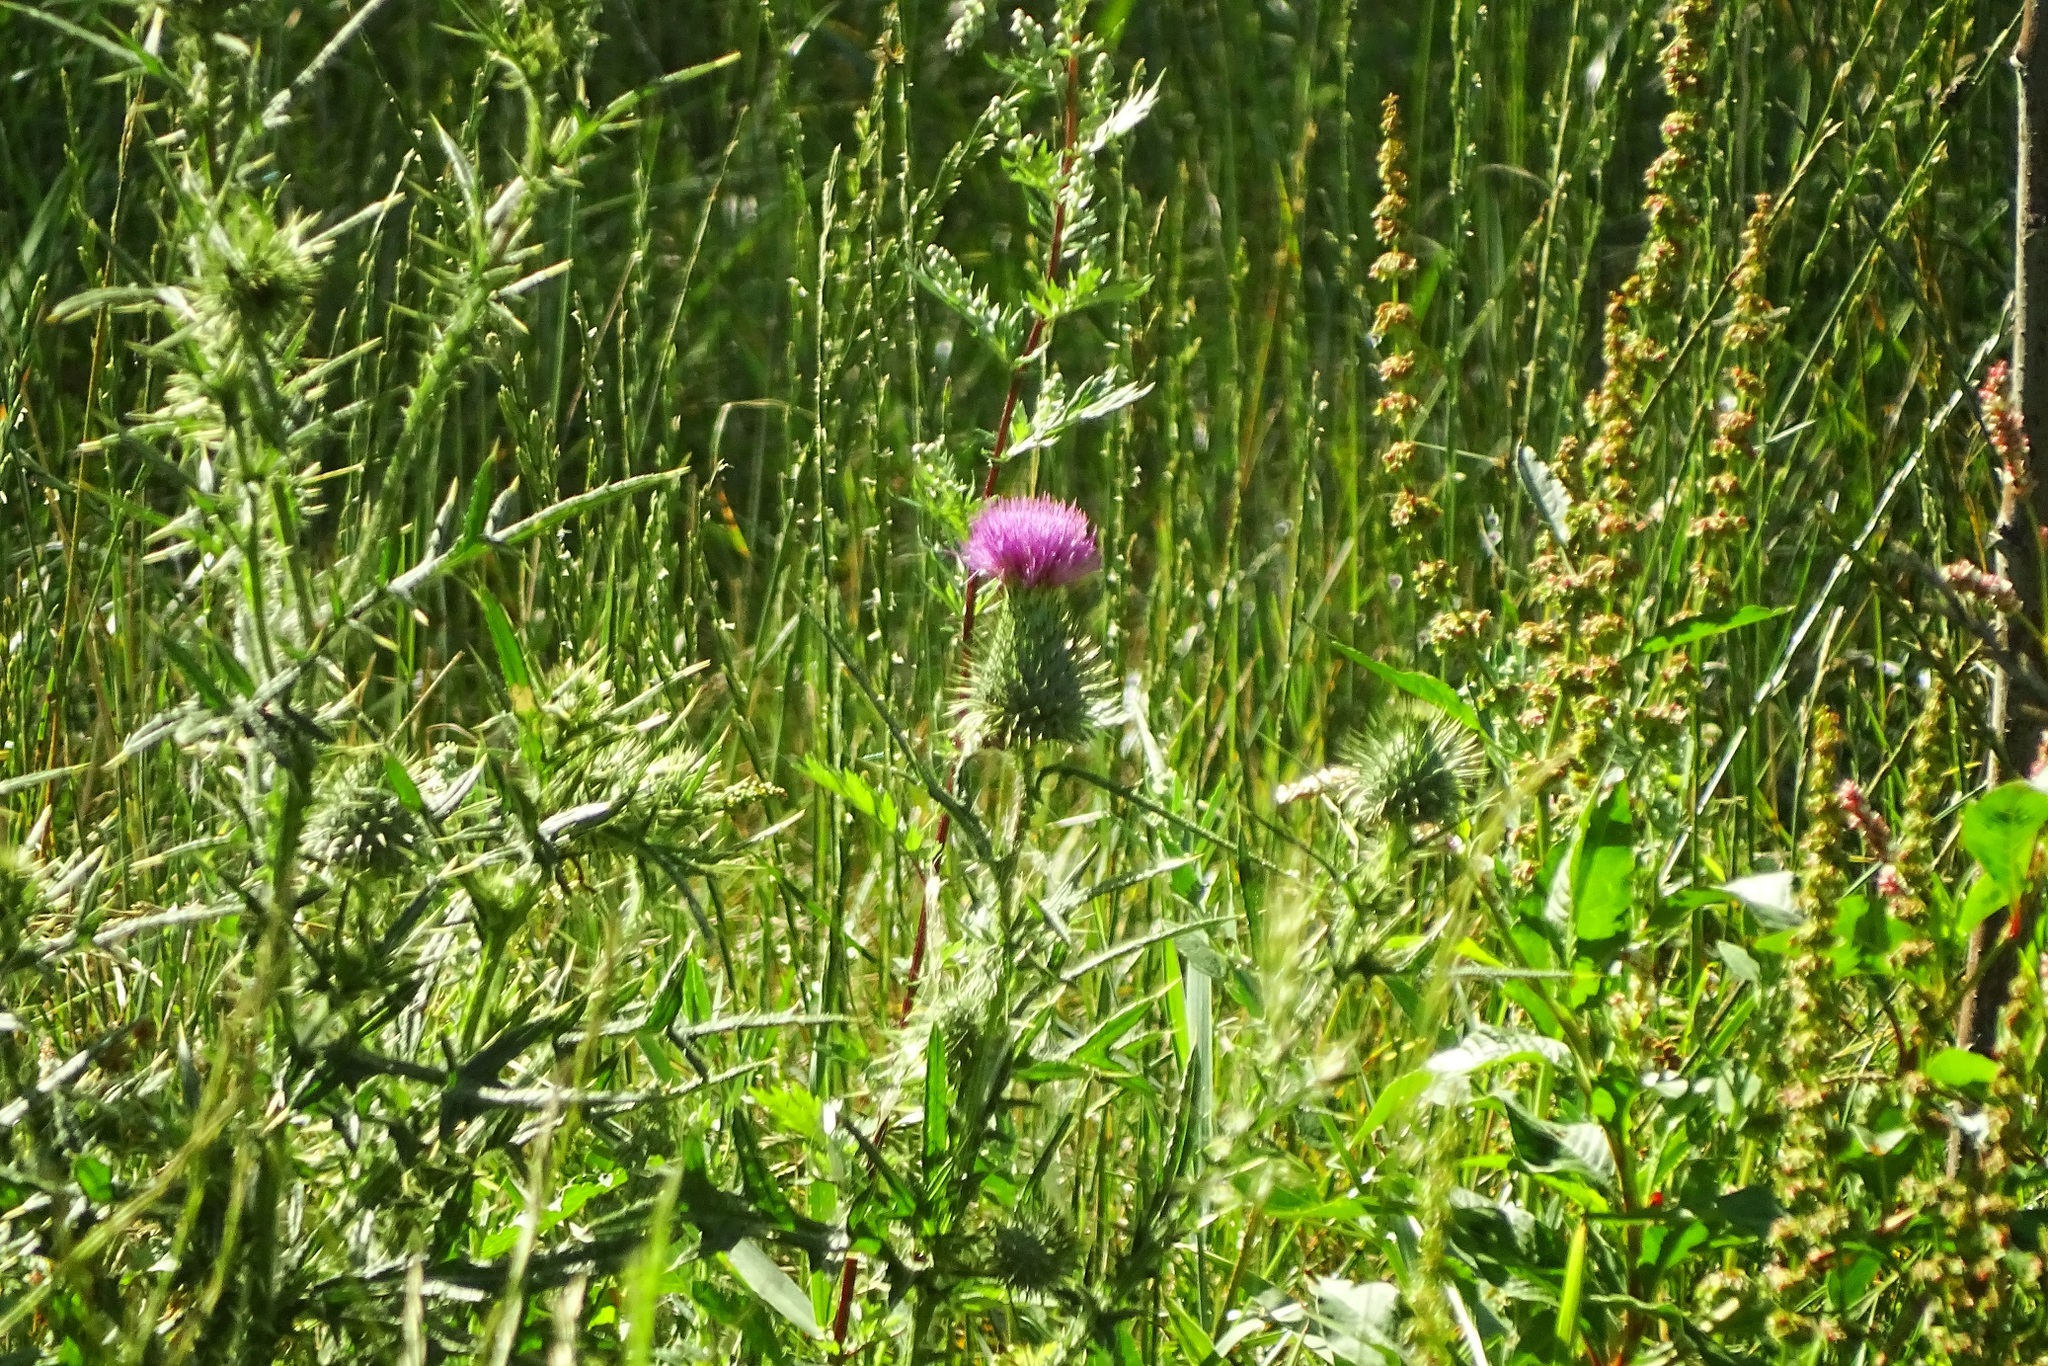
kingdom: Plantae
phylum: Tracheophyta
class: Magnoliopsida
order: Asterales
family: Asteraceae
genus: Cirsium
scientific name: Cirsium vulgare
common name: Bull thistle
